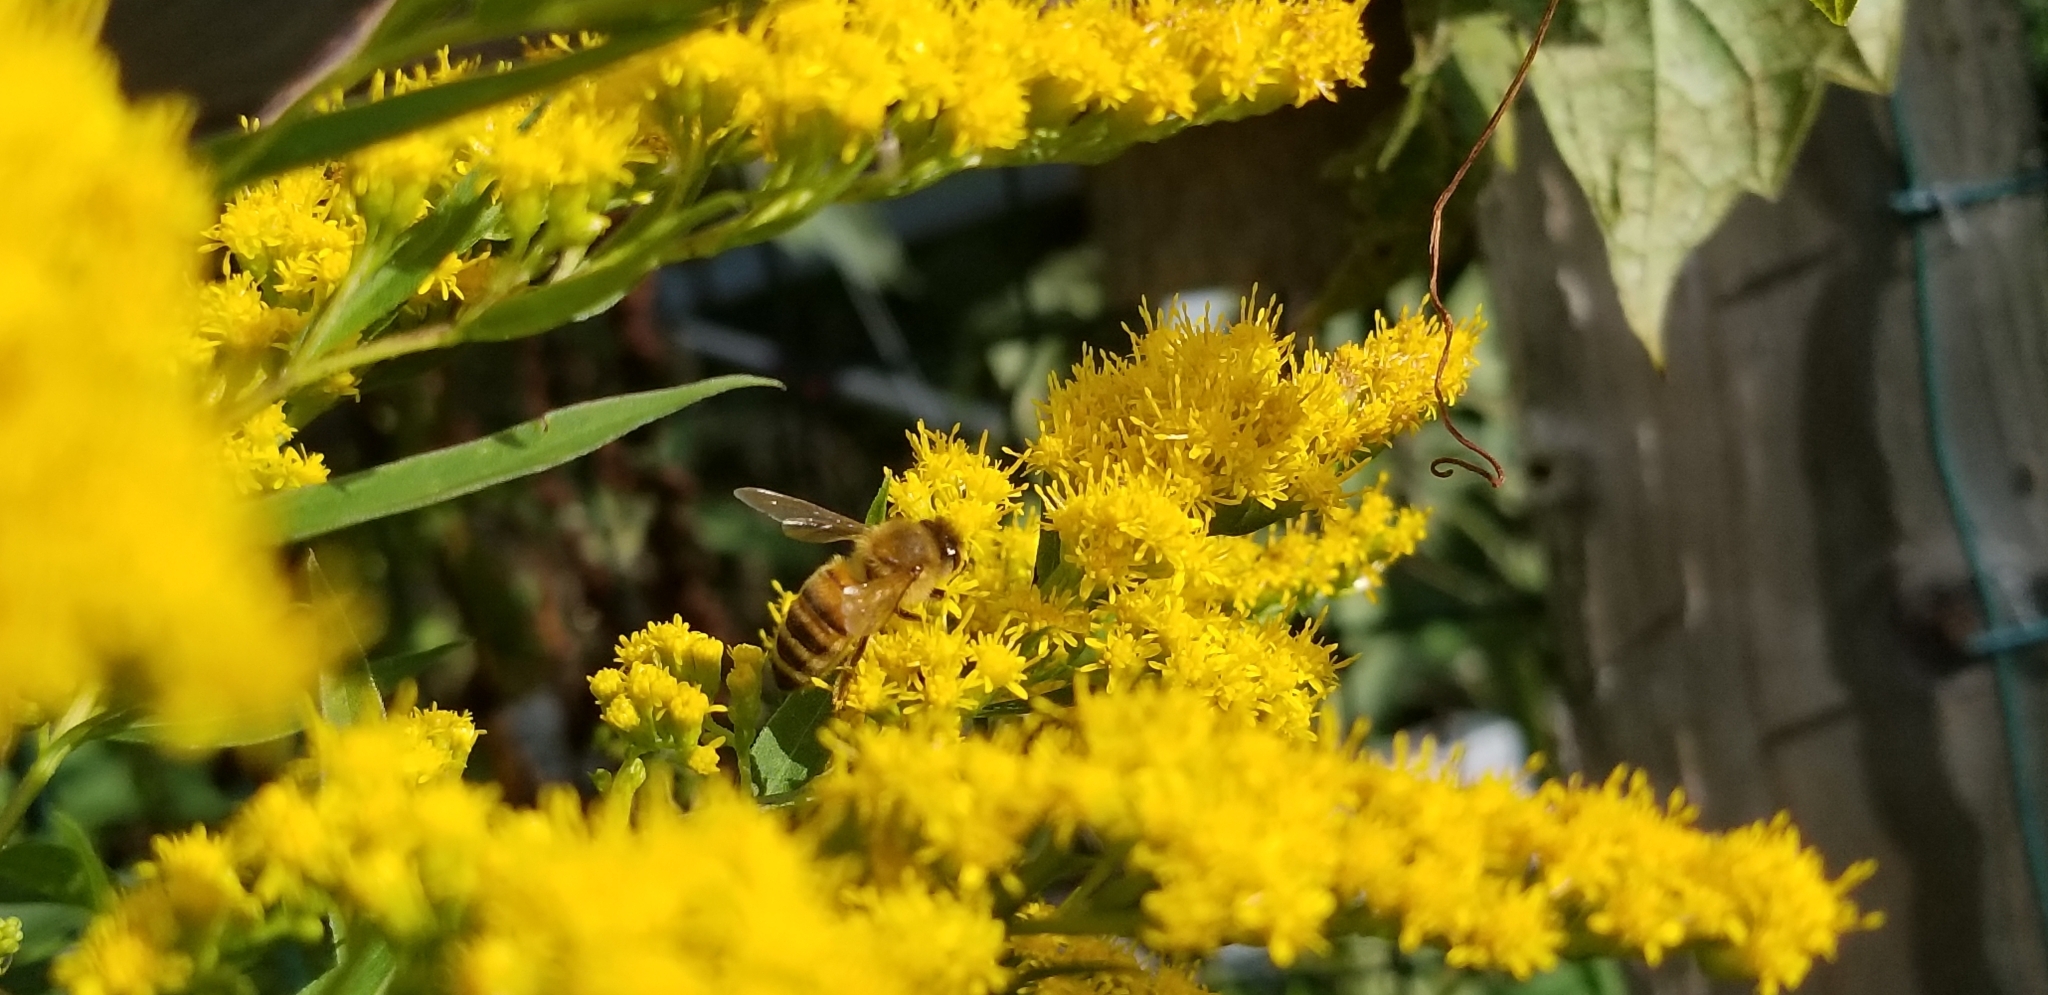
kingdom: Animalia
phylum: Arthropoda
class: Insecta
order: Hymenoptera
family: Apidae
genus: Apis
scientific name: Apis mellifera
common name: Honey bee
